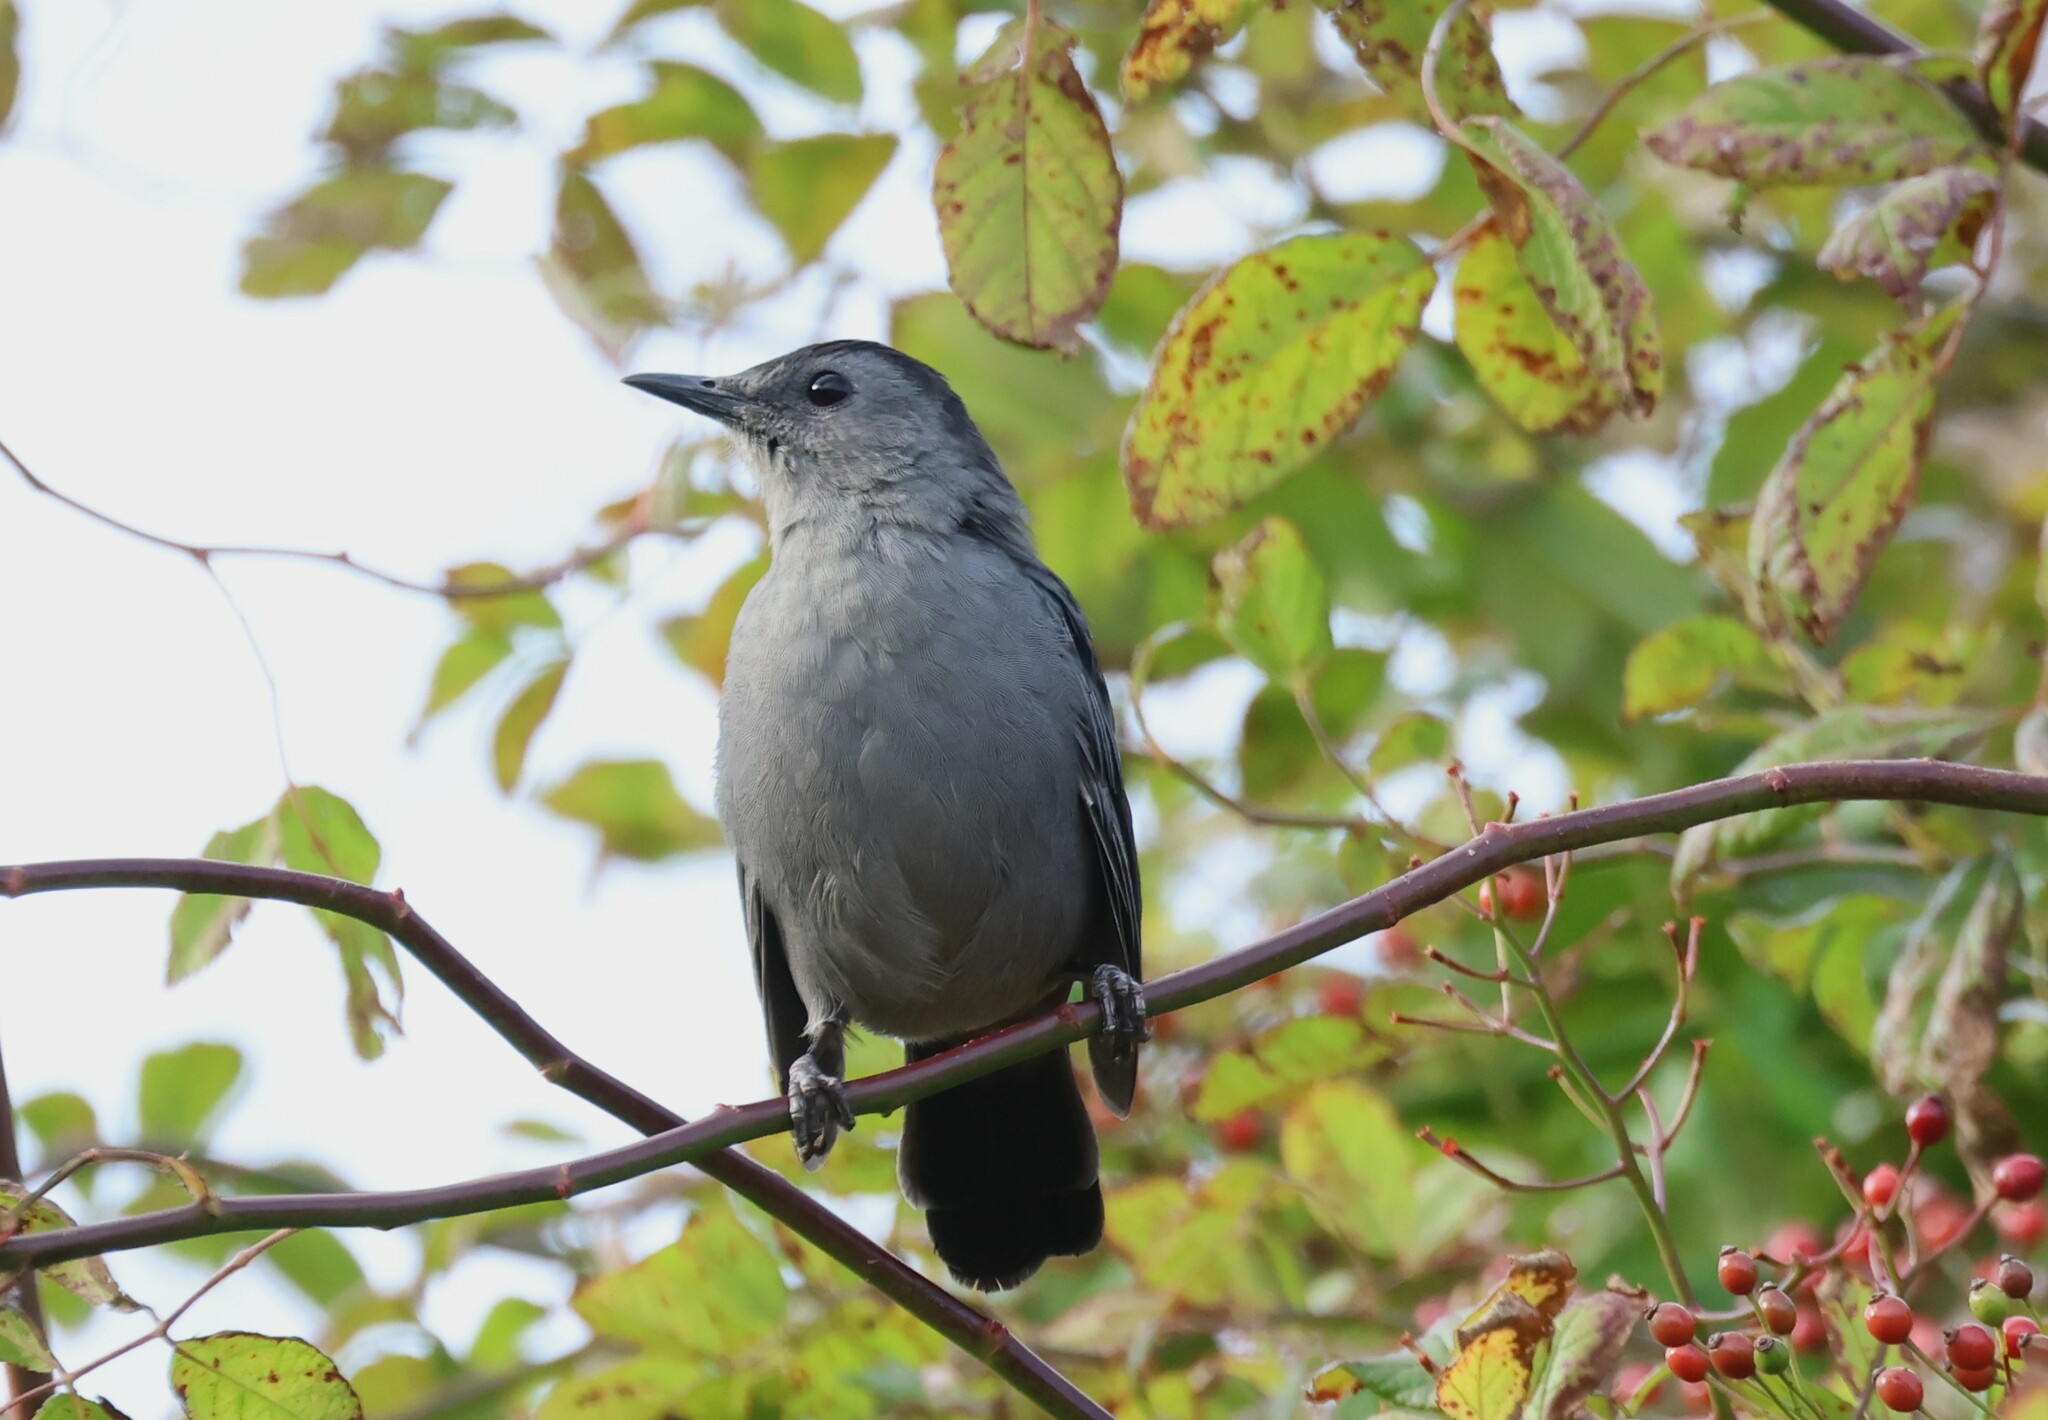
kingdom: Animalia
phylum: Chordata
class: Aves
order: Passeriformes
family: Mimidae
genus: Dumetella
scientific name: Dumetella carolinensis
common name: Gray catbird
